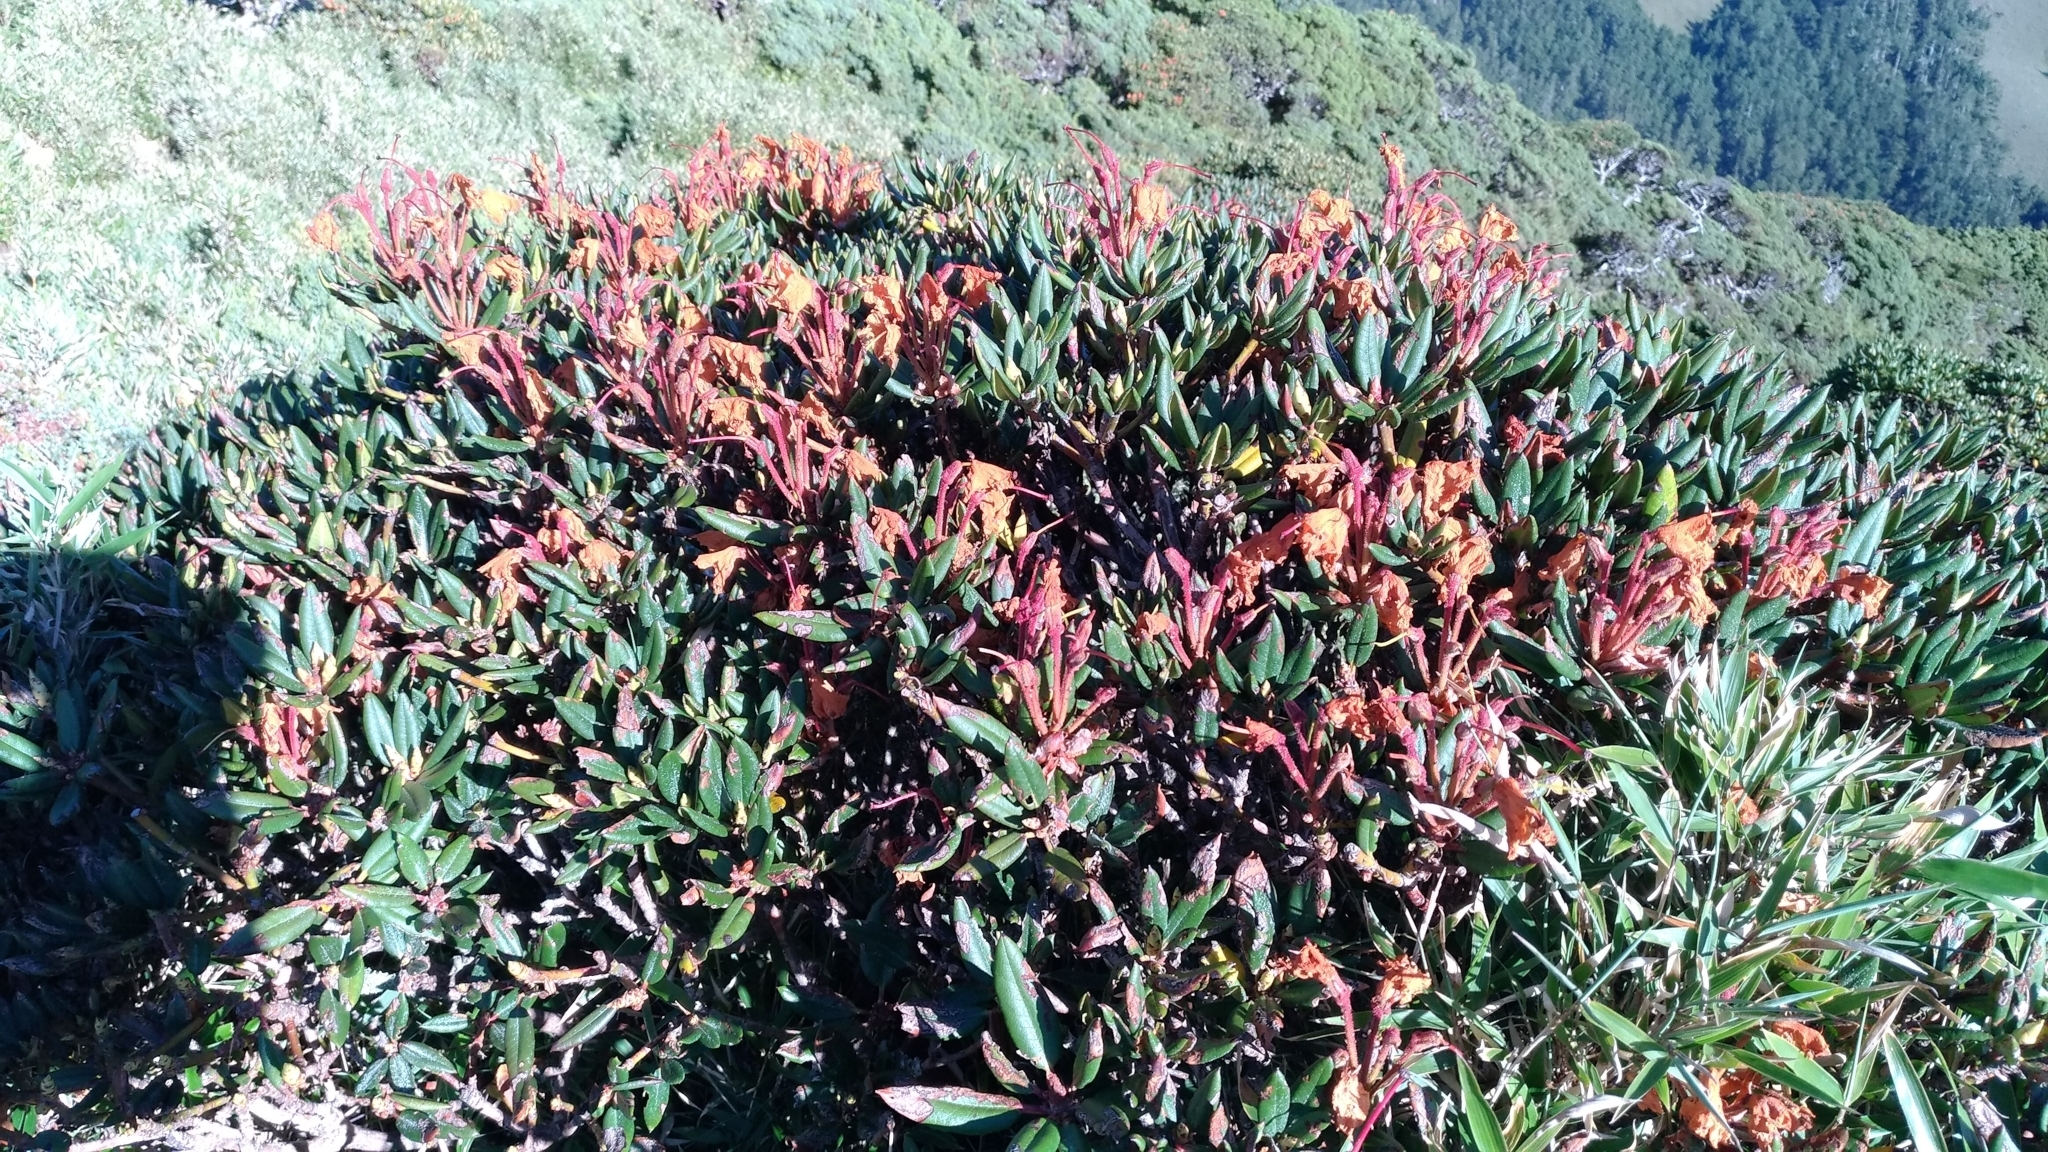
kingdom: Plantae
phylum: Tracheophyta
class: Magnoliopsida
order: Ericales
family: Ericaceae
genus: Rhododendron
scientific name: Rhododendron pseudochrysanthum
